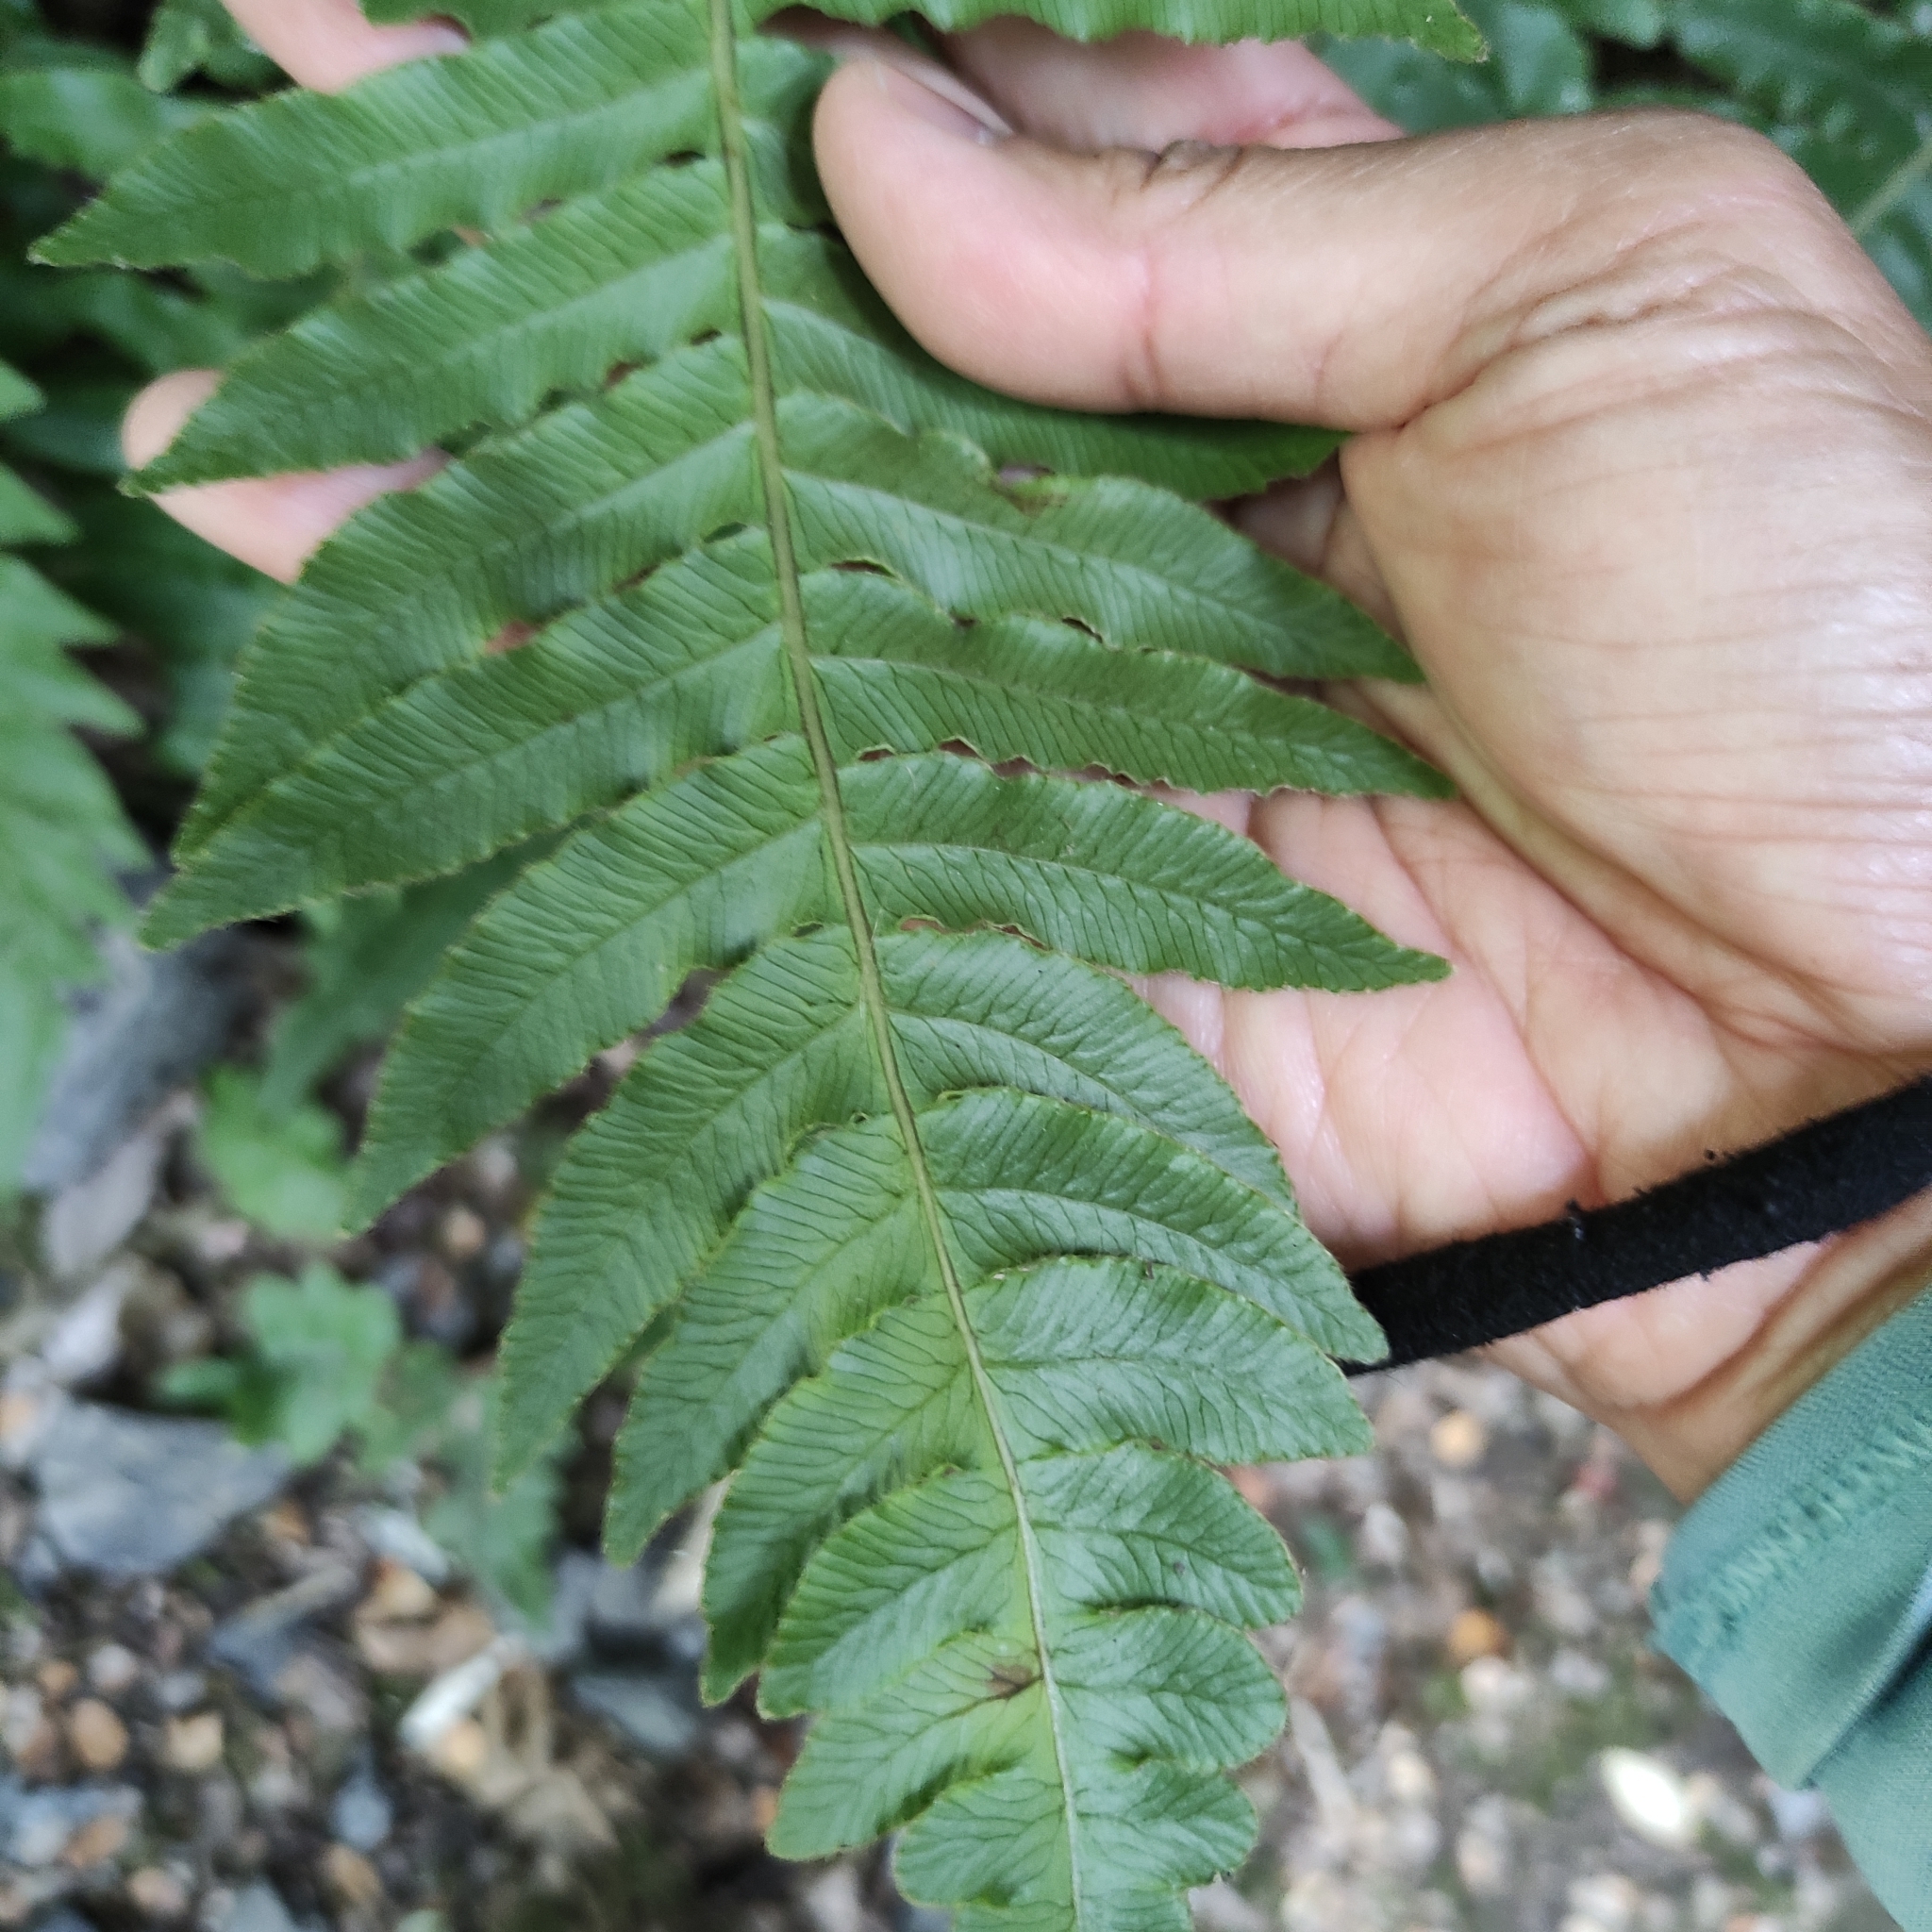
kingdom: Plantae
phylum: Tracheophyta
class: Polypodiopsida
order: Polypodiales
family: Blechnaceae
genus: Cranfillia
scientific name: Cranfillia deltoides
